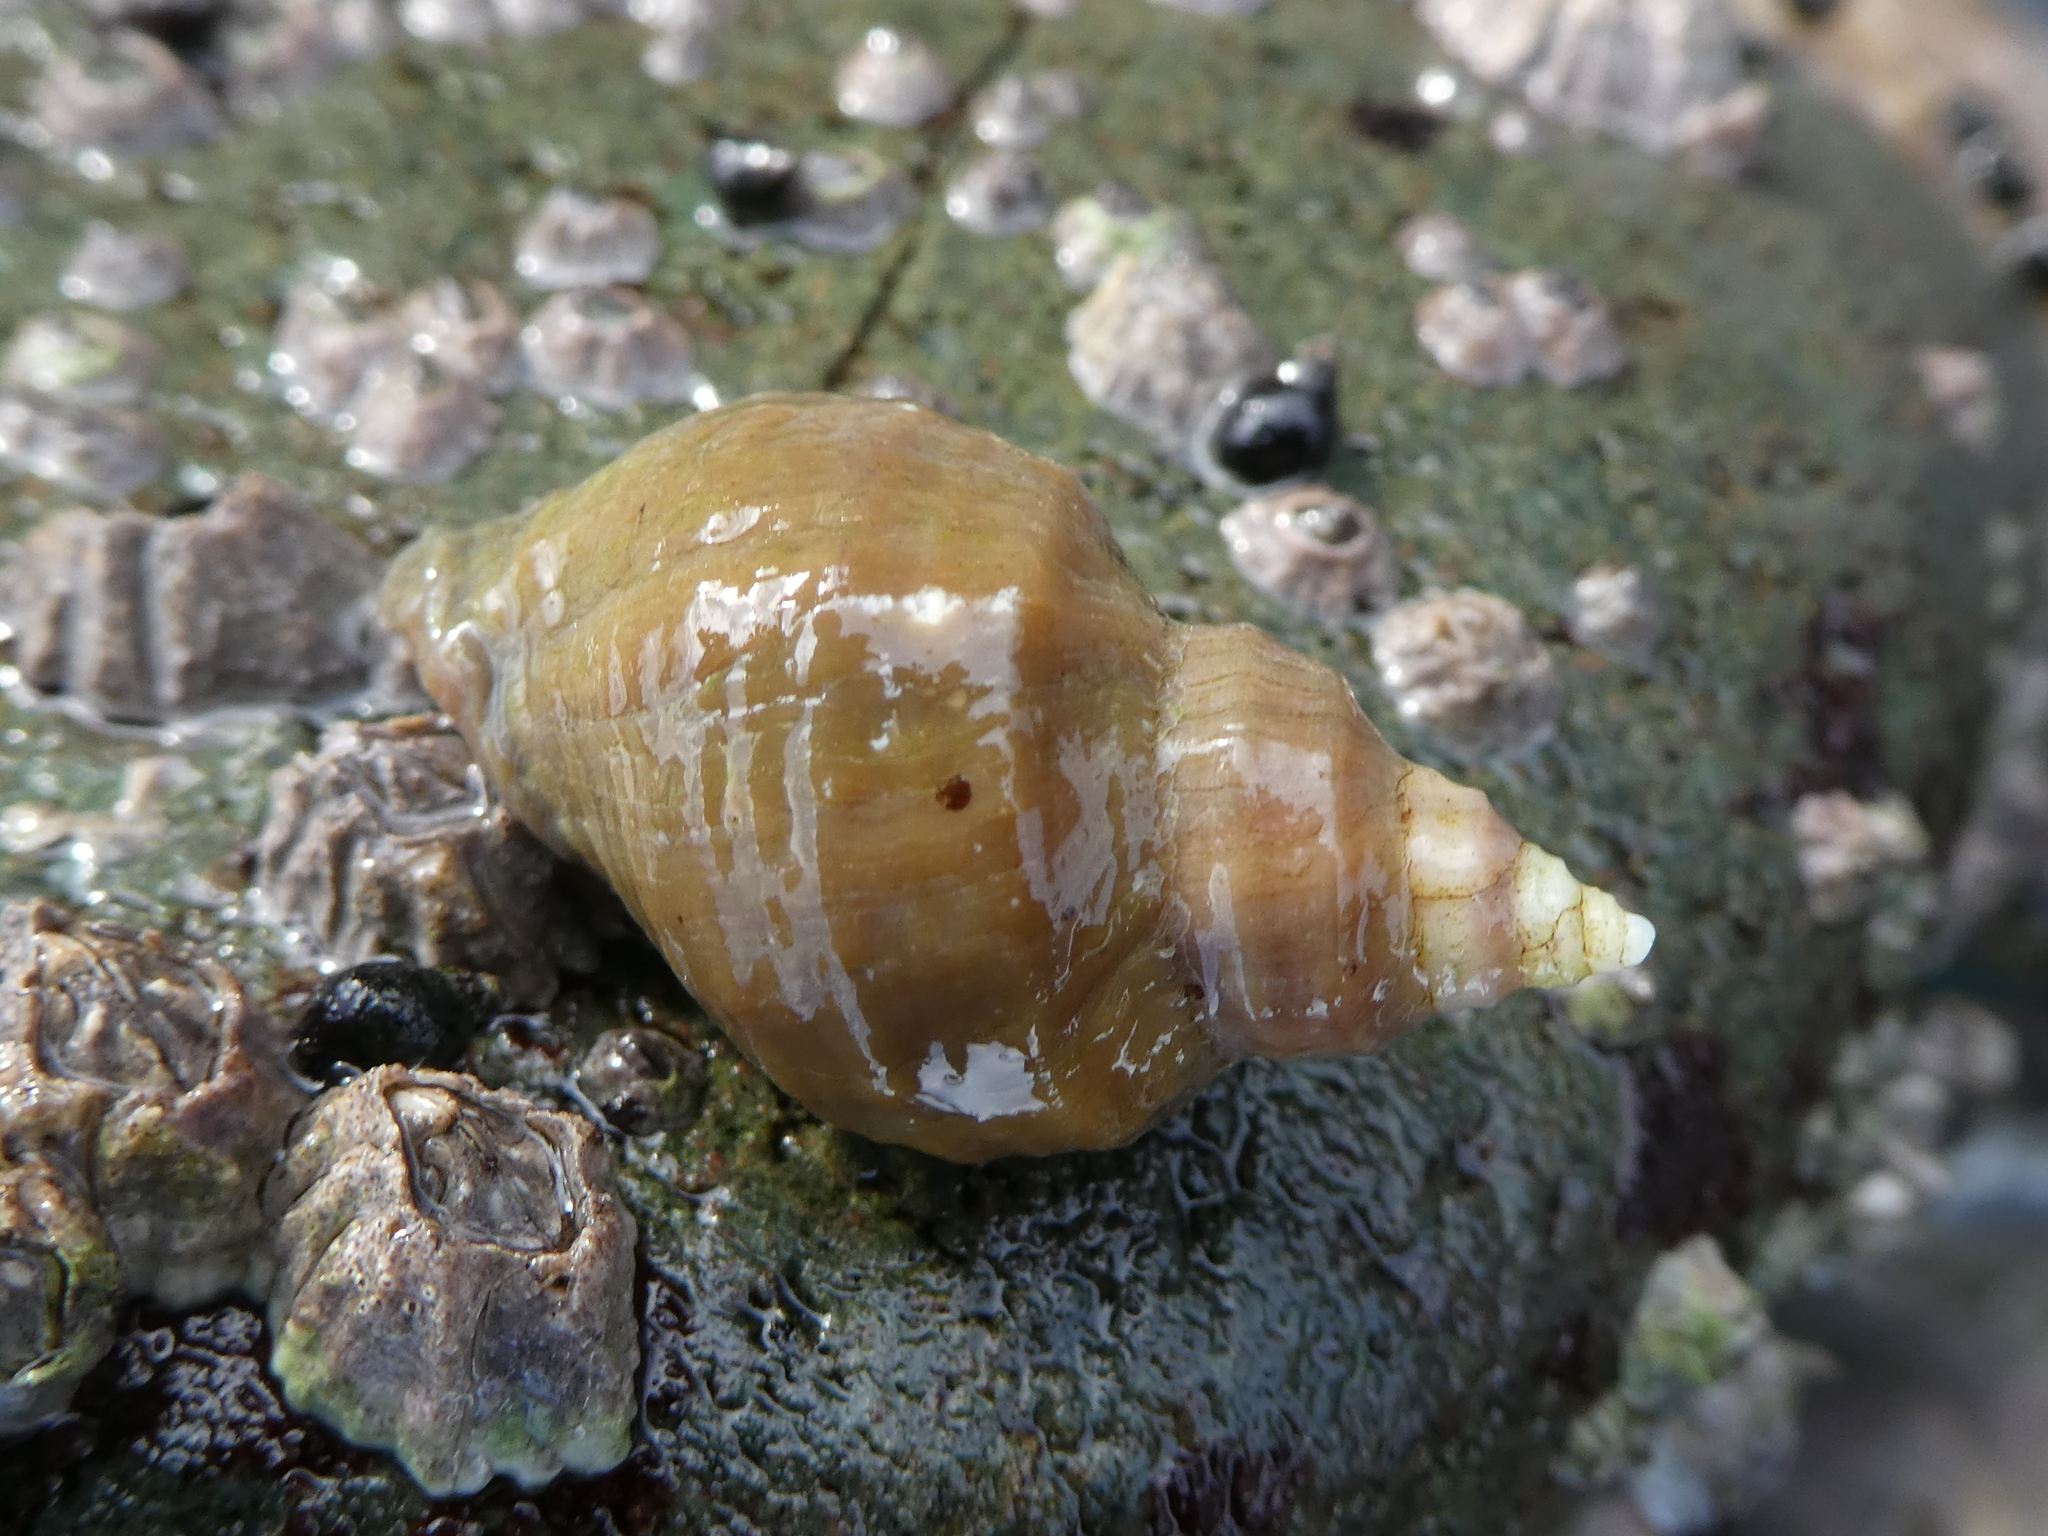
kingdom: Animalia
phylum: Mollusca
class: Gastropoda
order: Neogastropoda
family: Muricidae
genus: Nucella
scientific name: Nucella lamellosa
